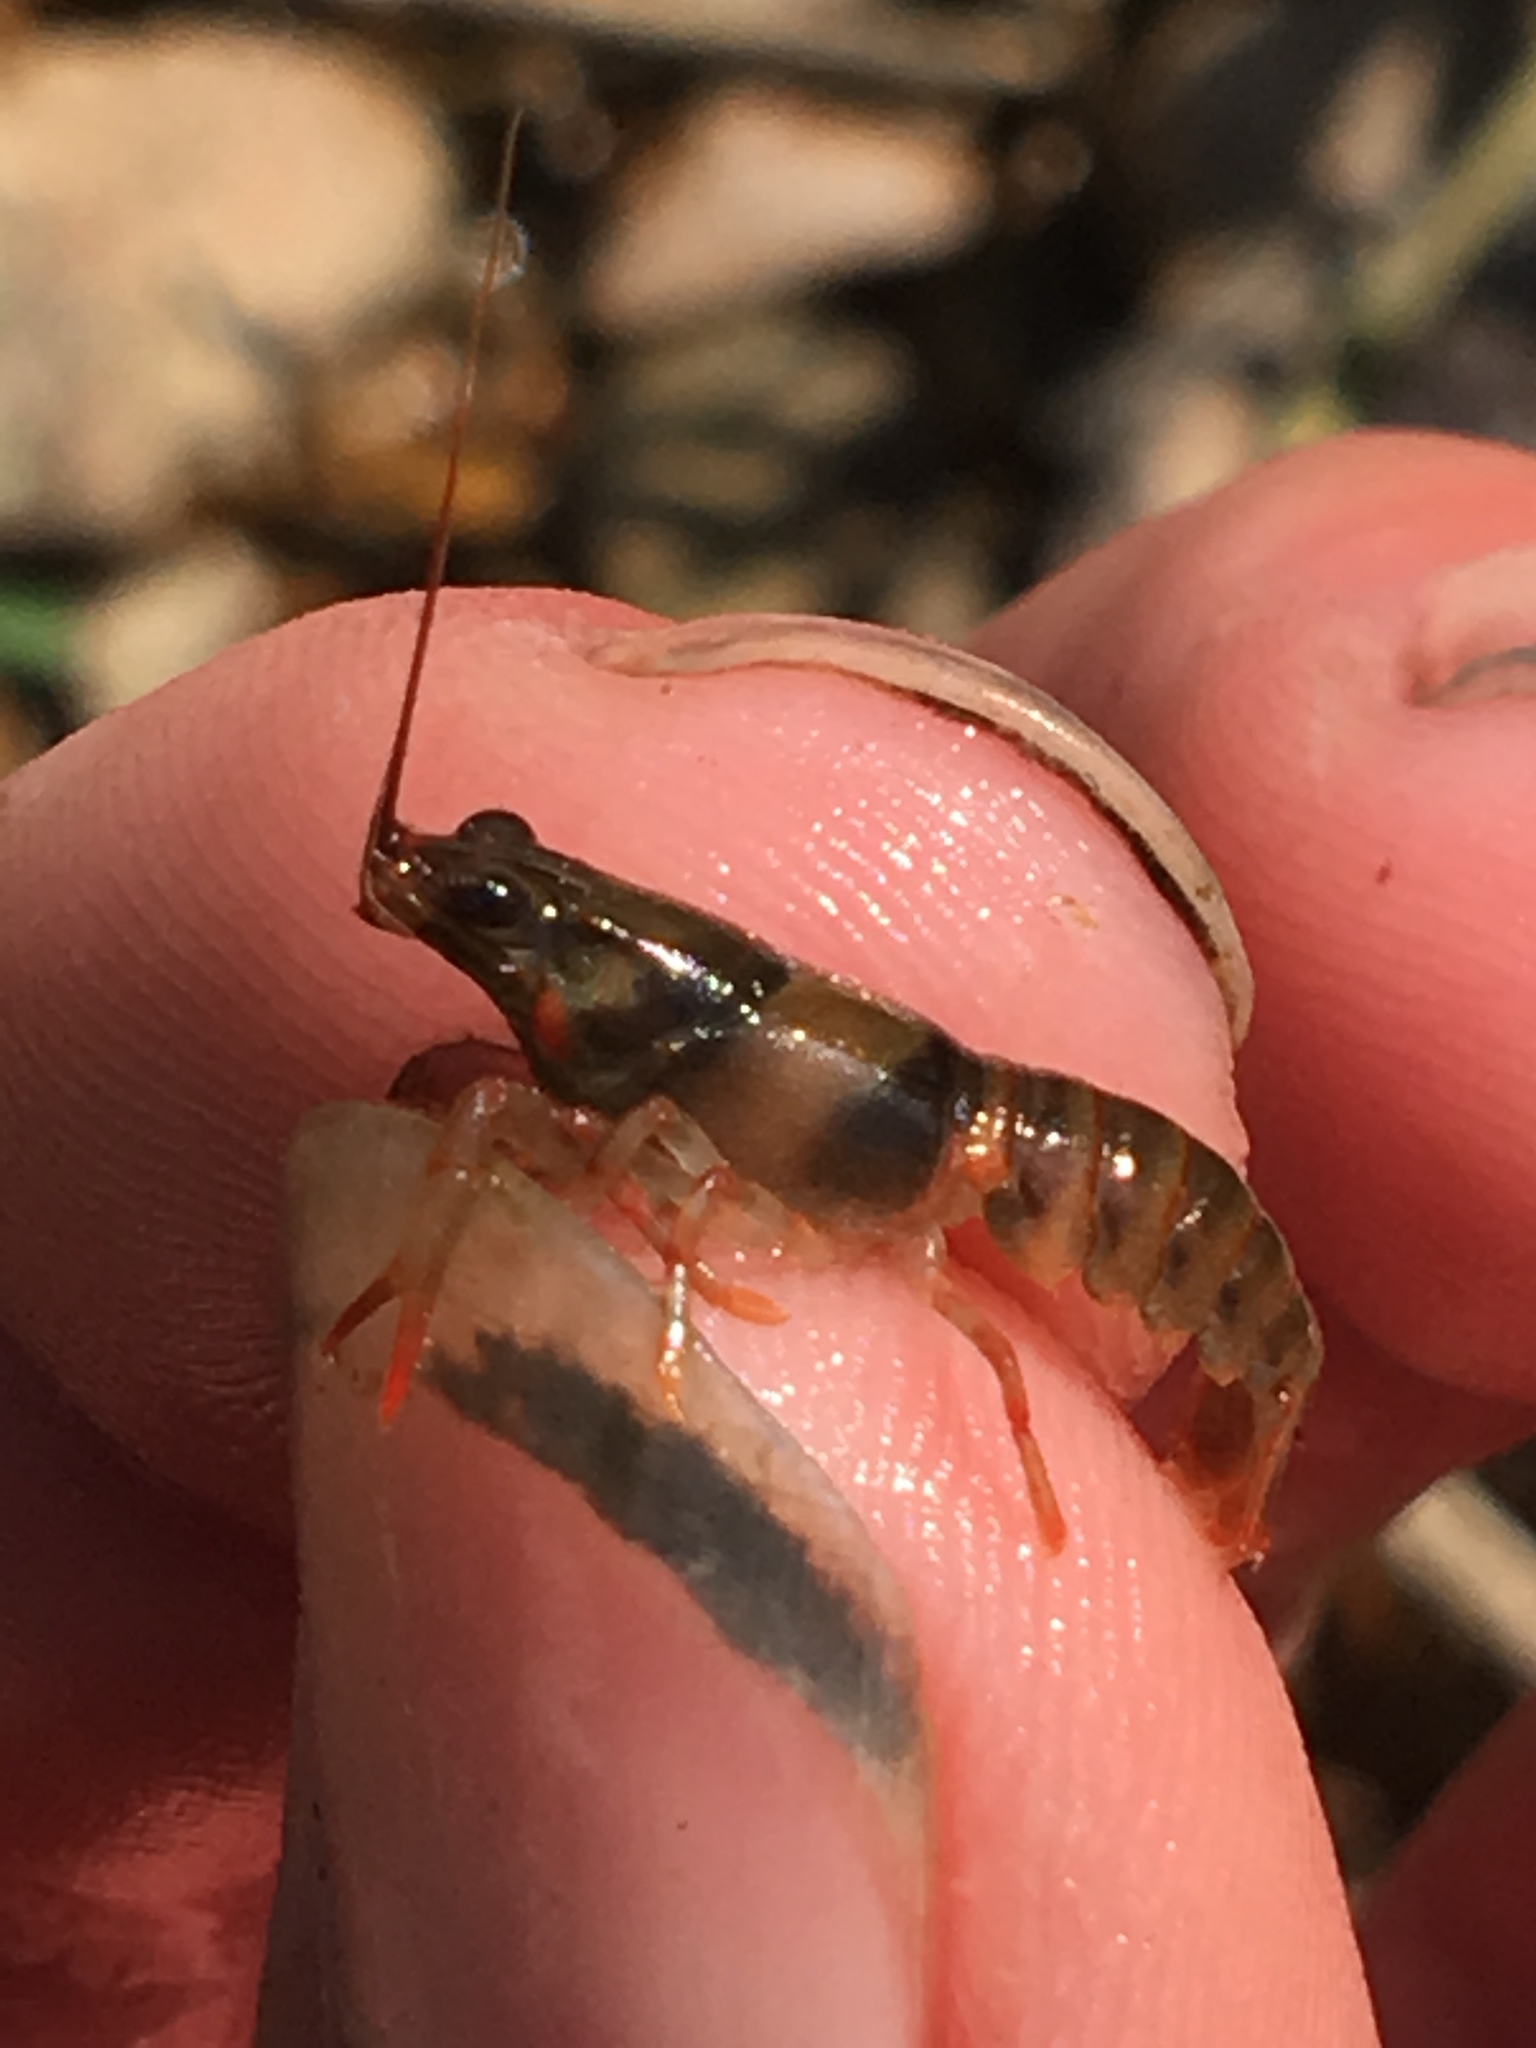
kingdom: Animalia
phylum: Arthropoda
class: Malacostraca
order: Decapoda
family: Cambaridae
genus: Faxonius
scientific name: Faxonius luteus
